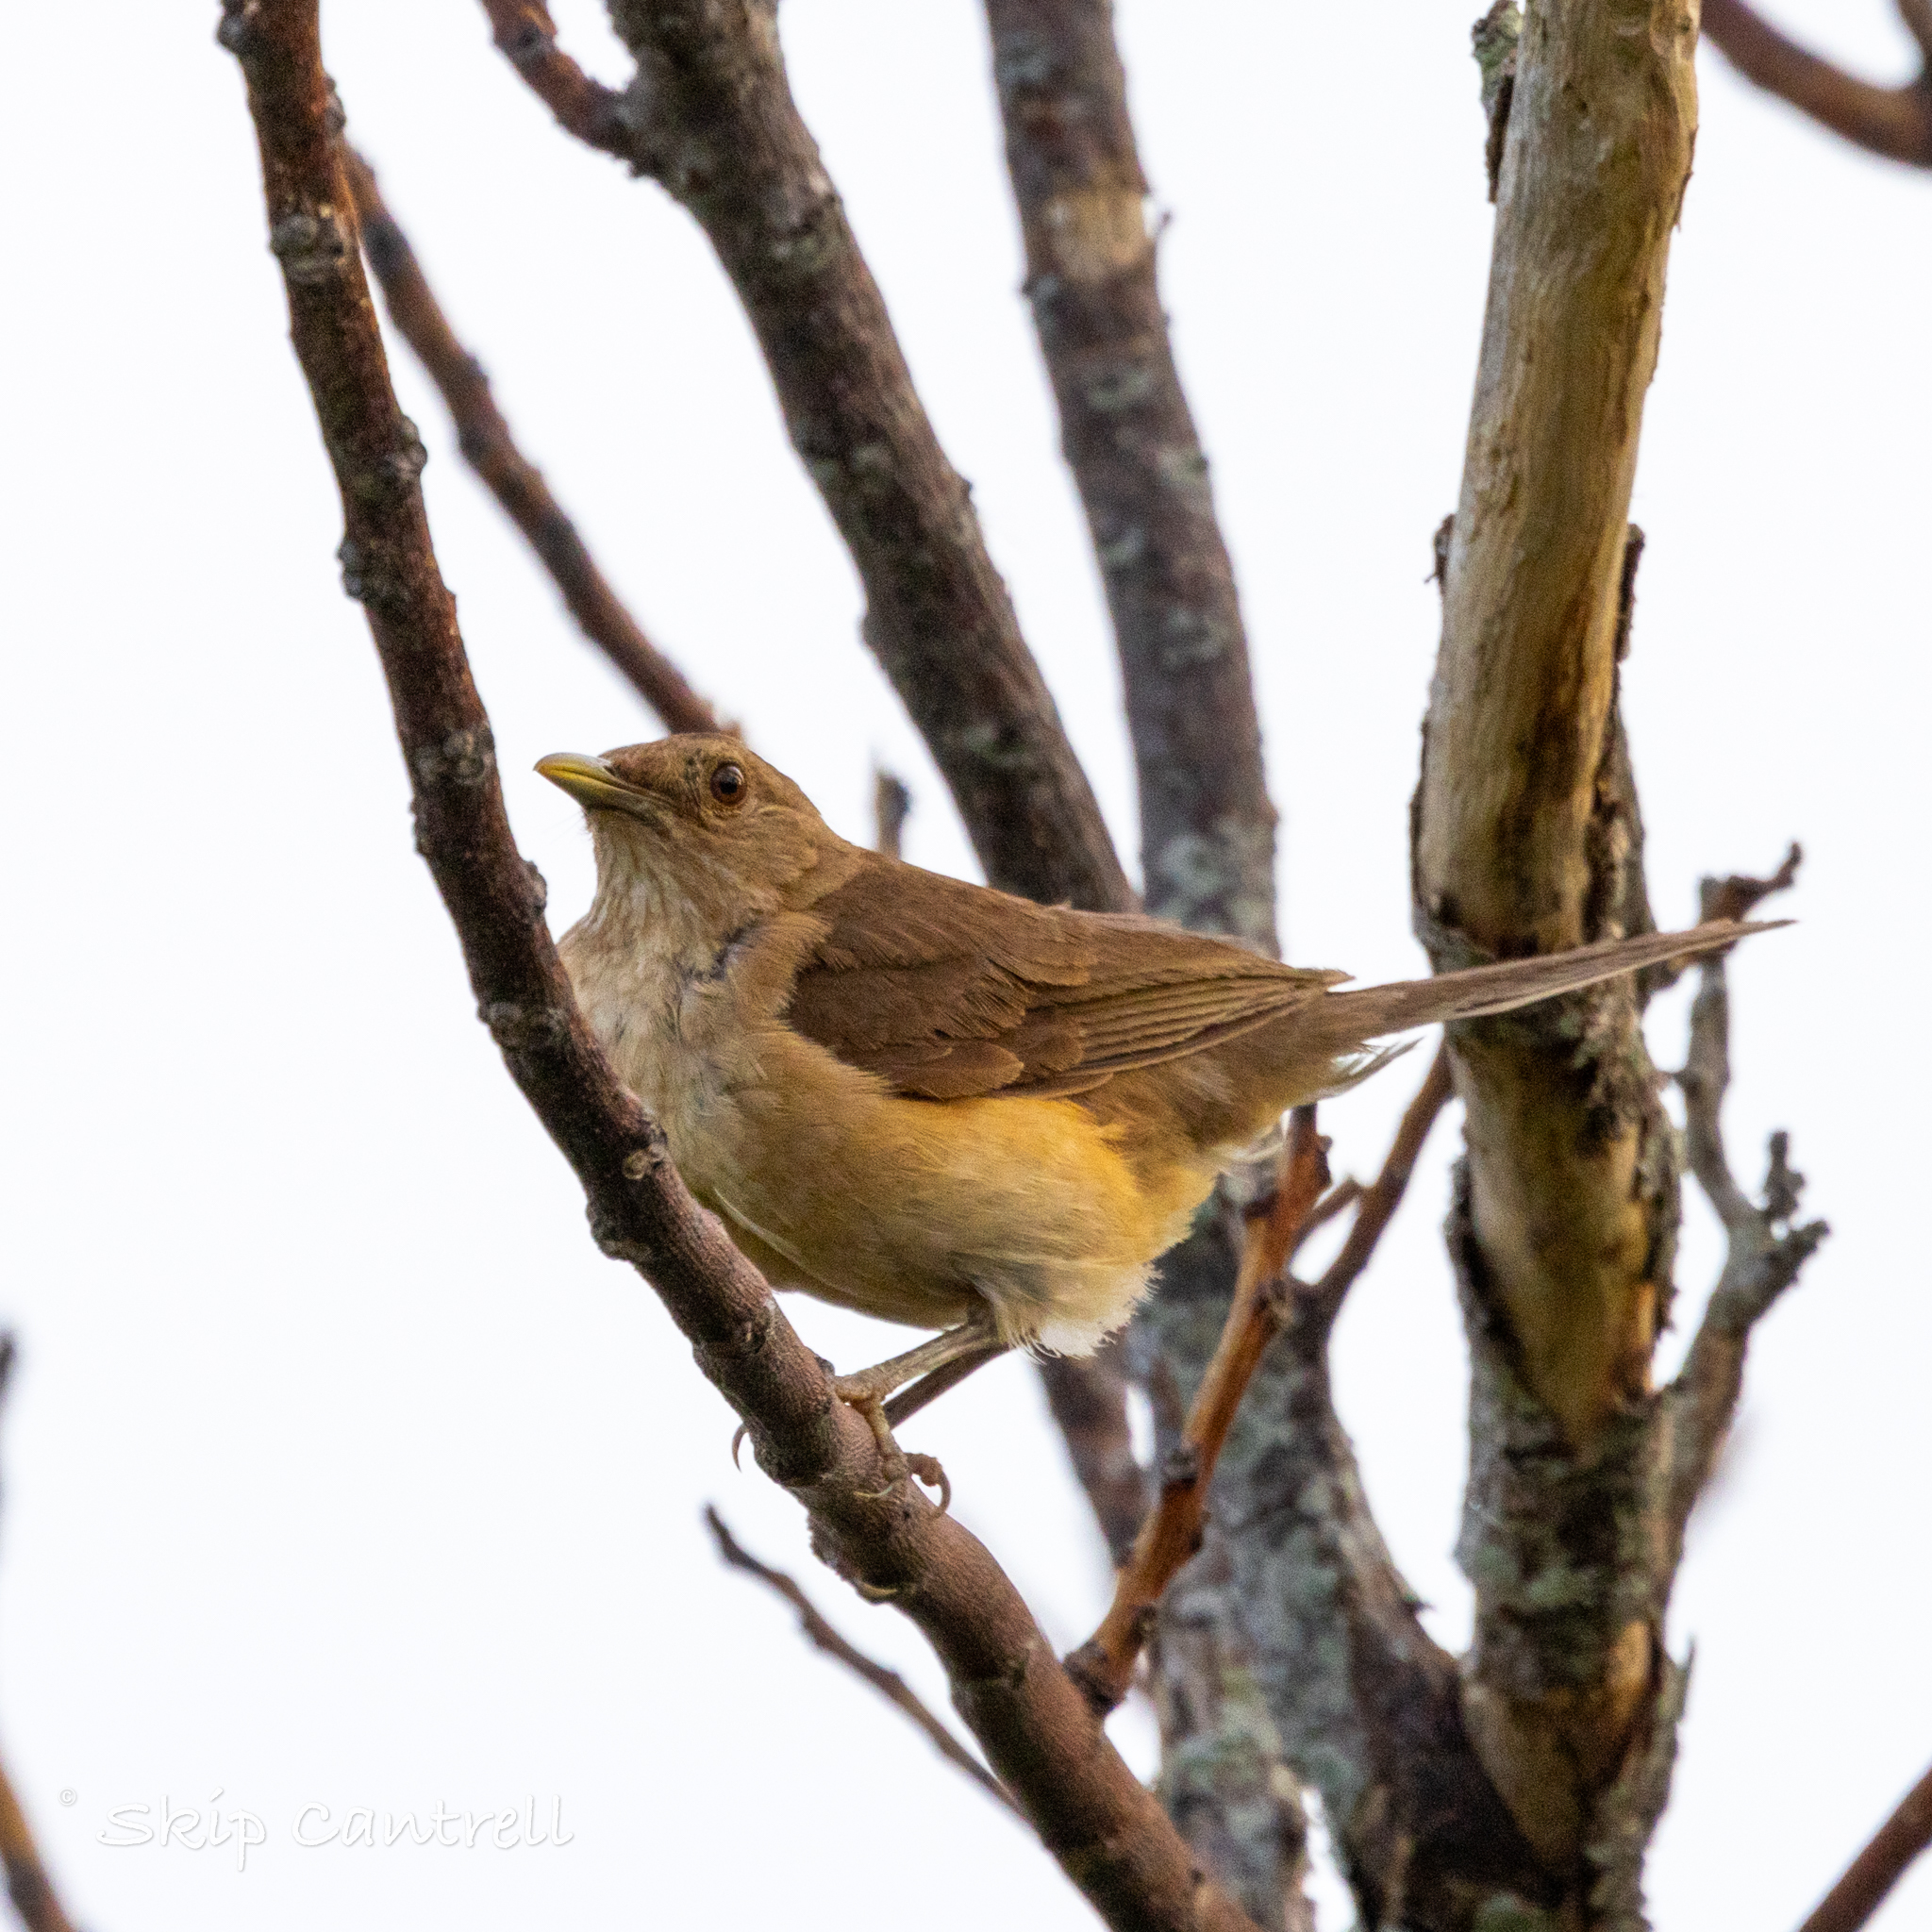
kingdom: Animalia
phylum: Chordata
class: Aves
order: Passeriformes
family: Turdidae
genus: Turdus
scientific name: Turdus grayi
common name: Clay-colored thrush
